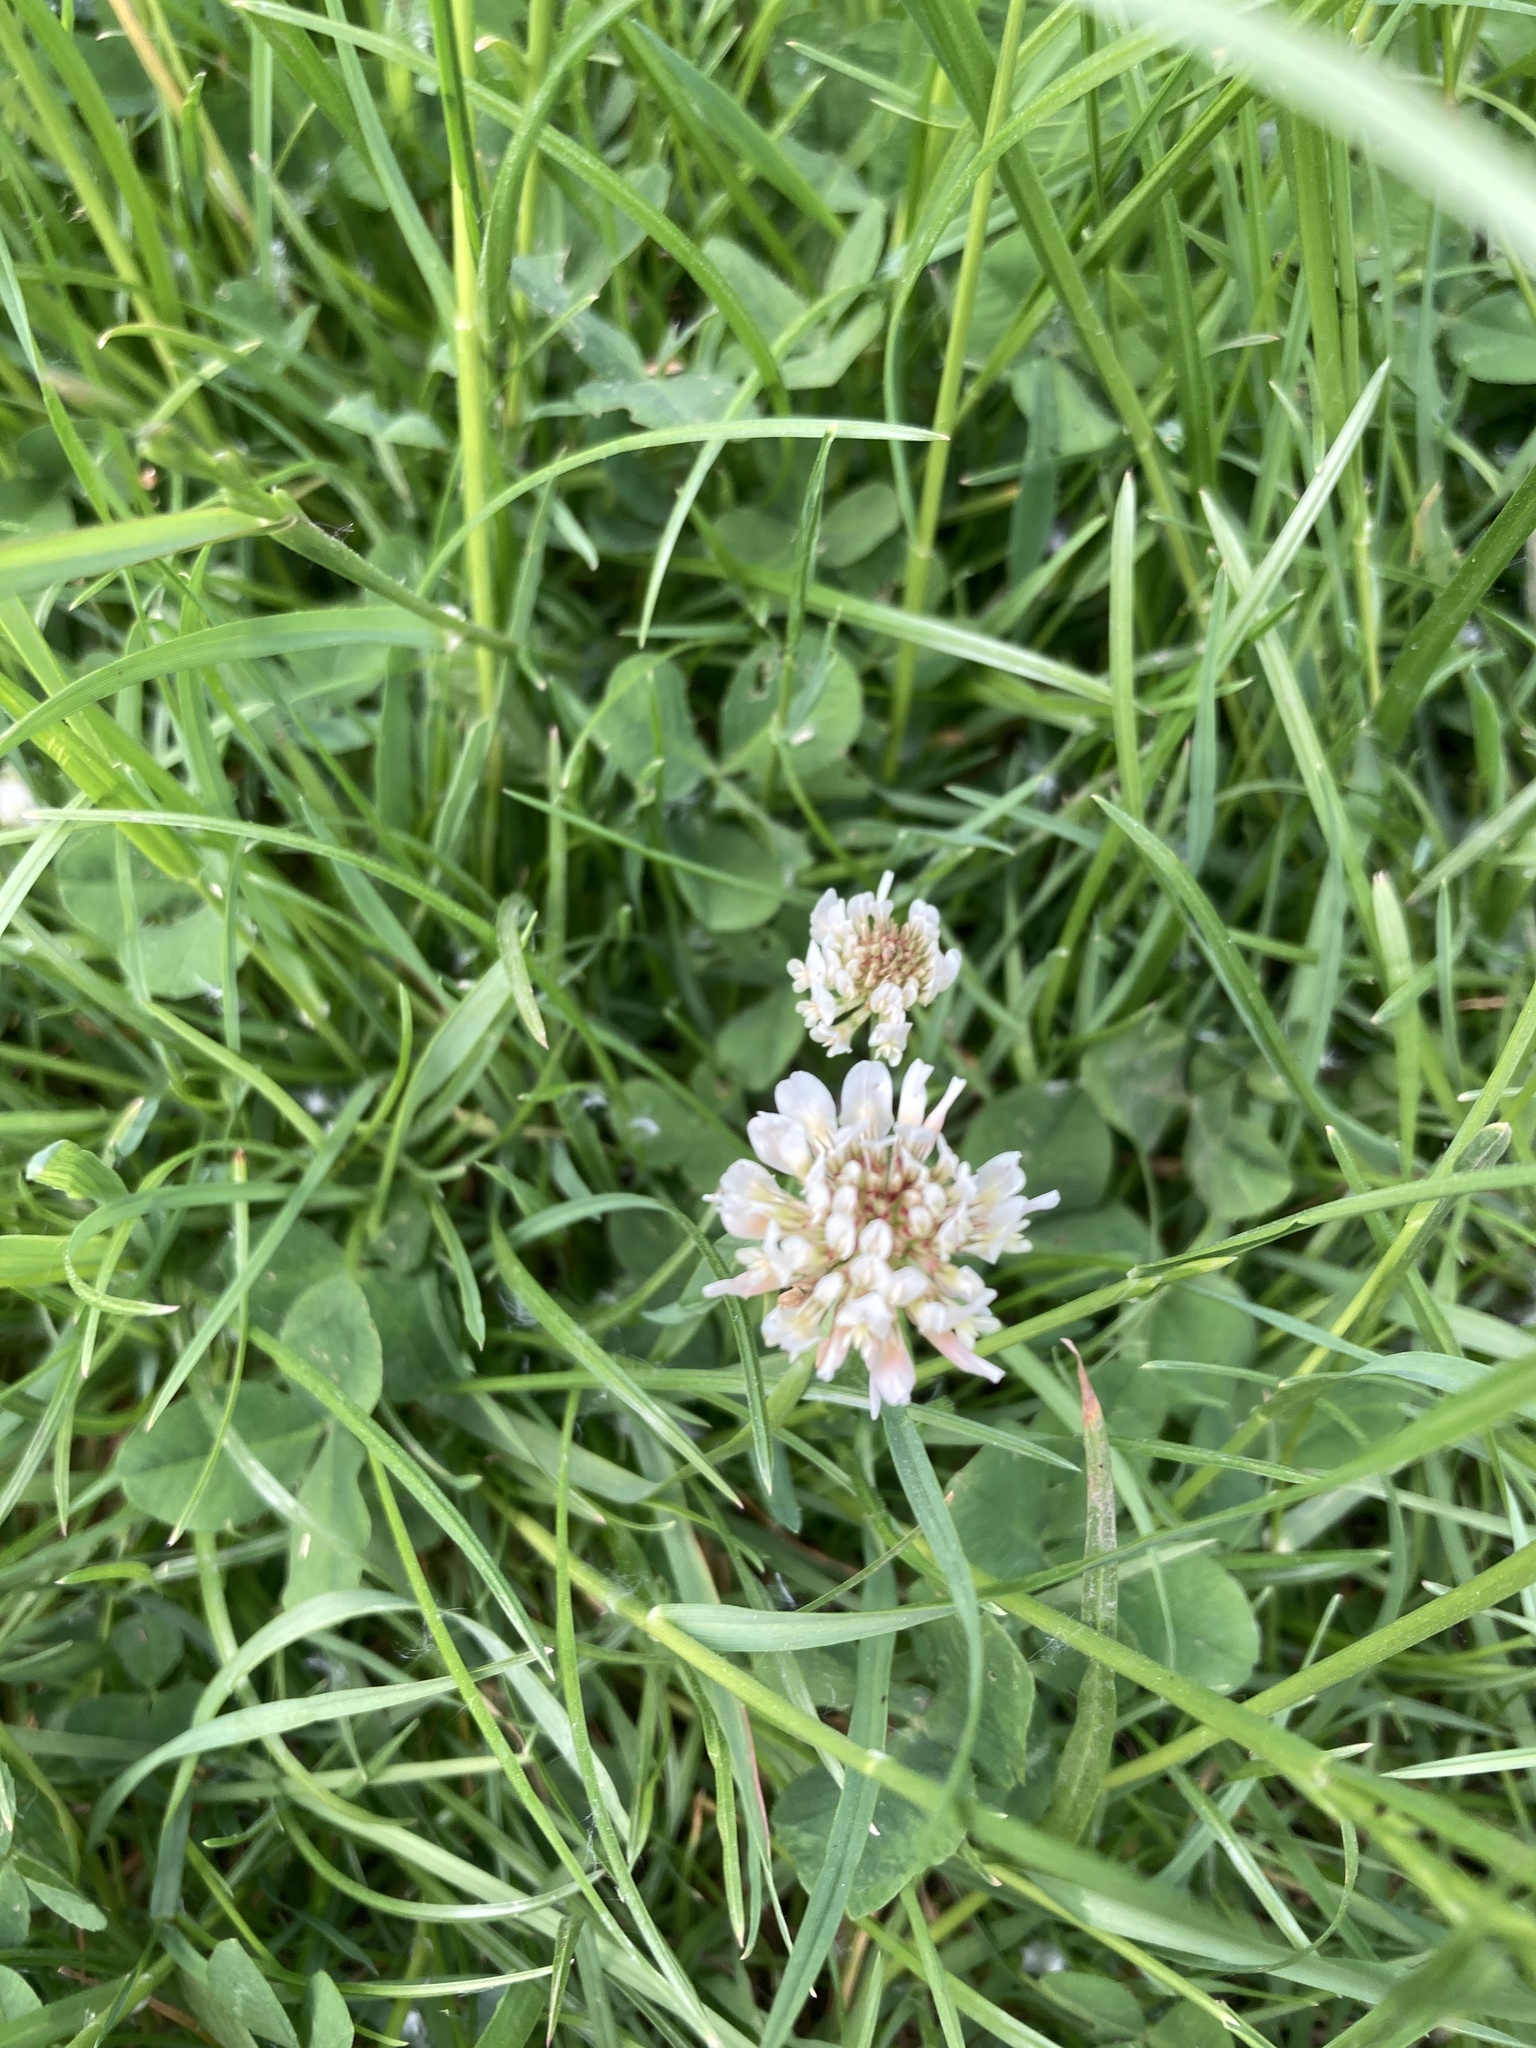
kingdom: Plantae
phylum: Tracheophyta
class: Magnoliopsida
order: Fabales
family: Fabaceae
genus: Trifolium
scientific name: Trifolium repens
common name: White clover
